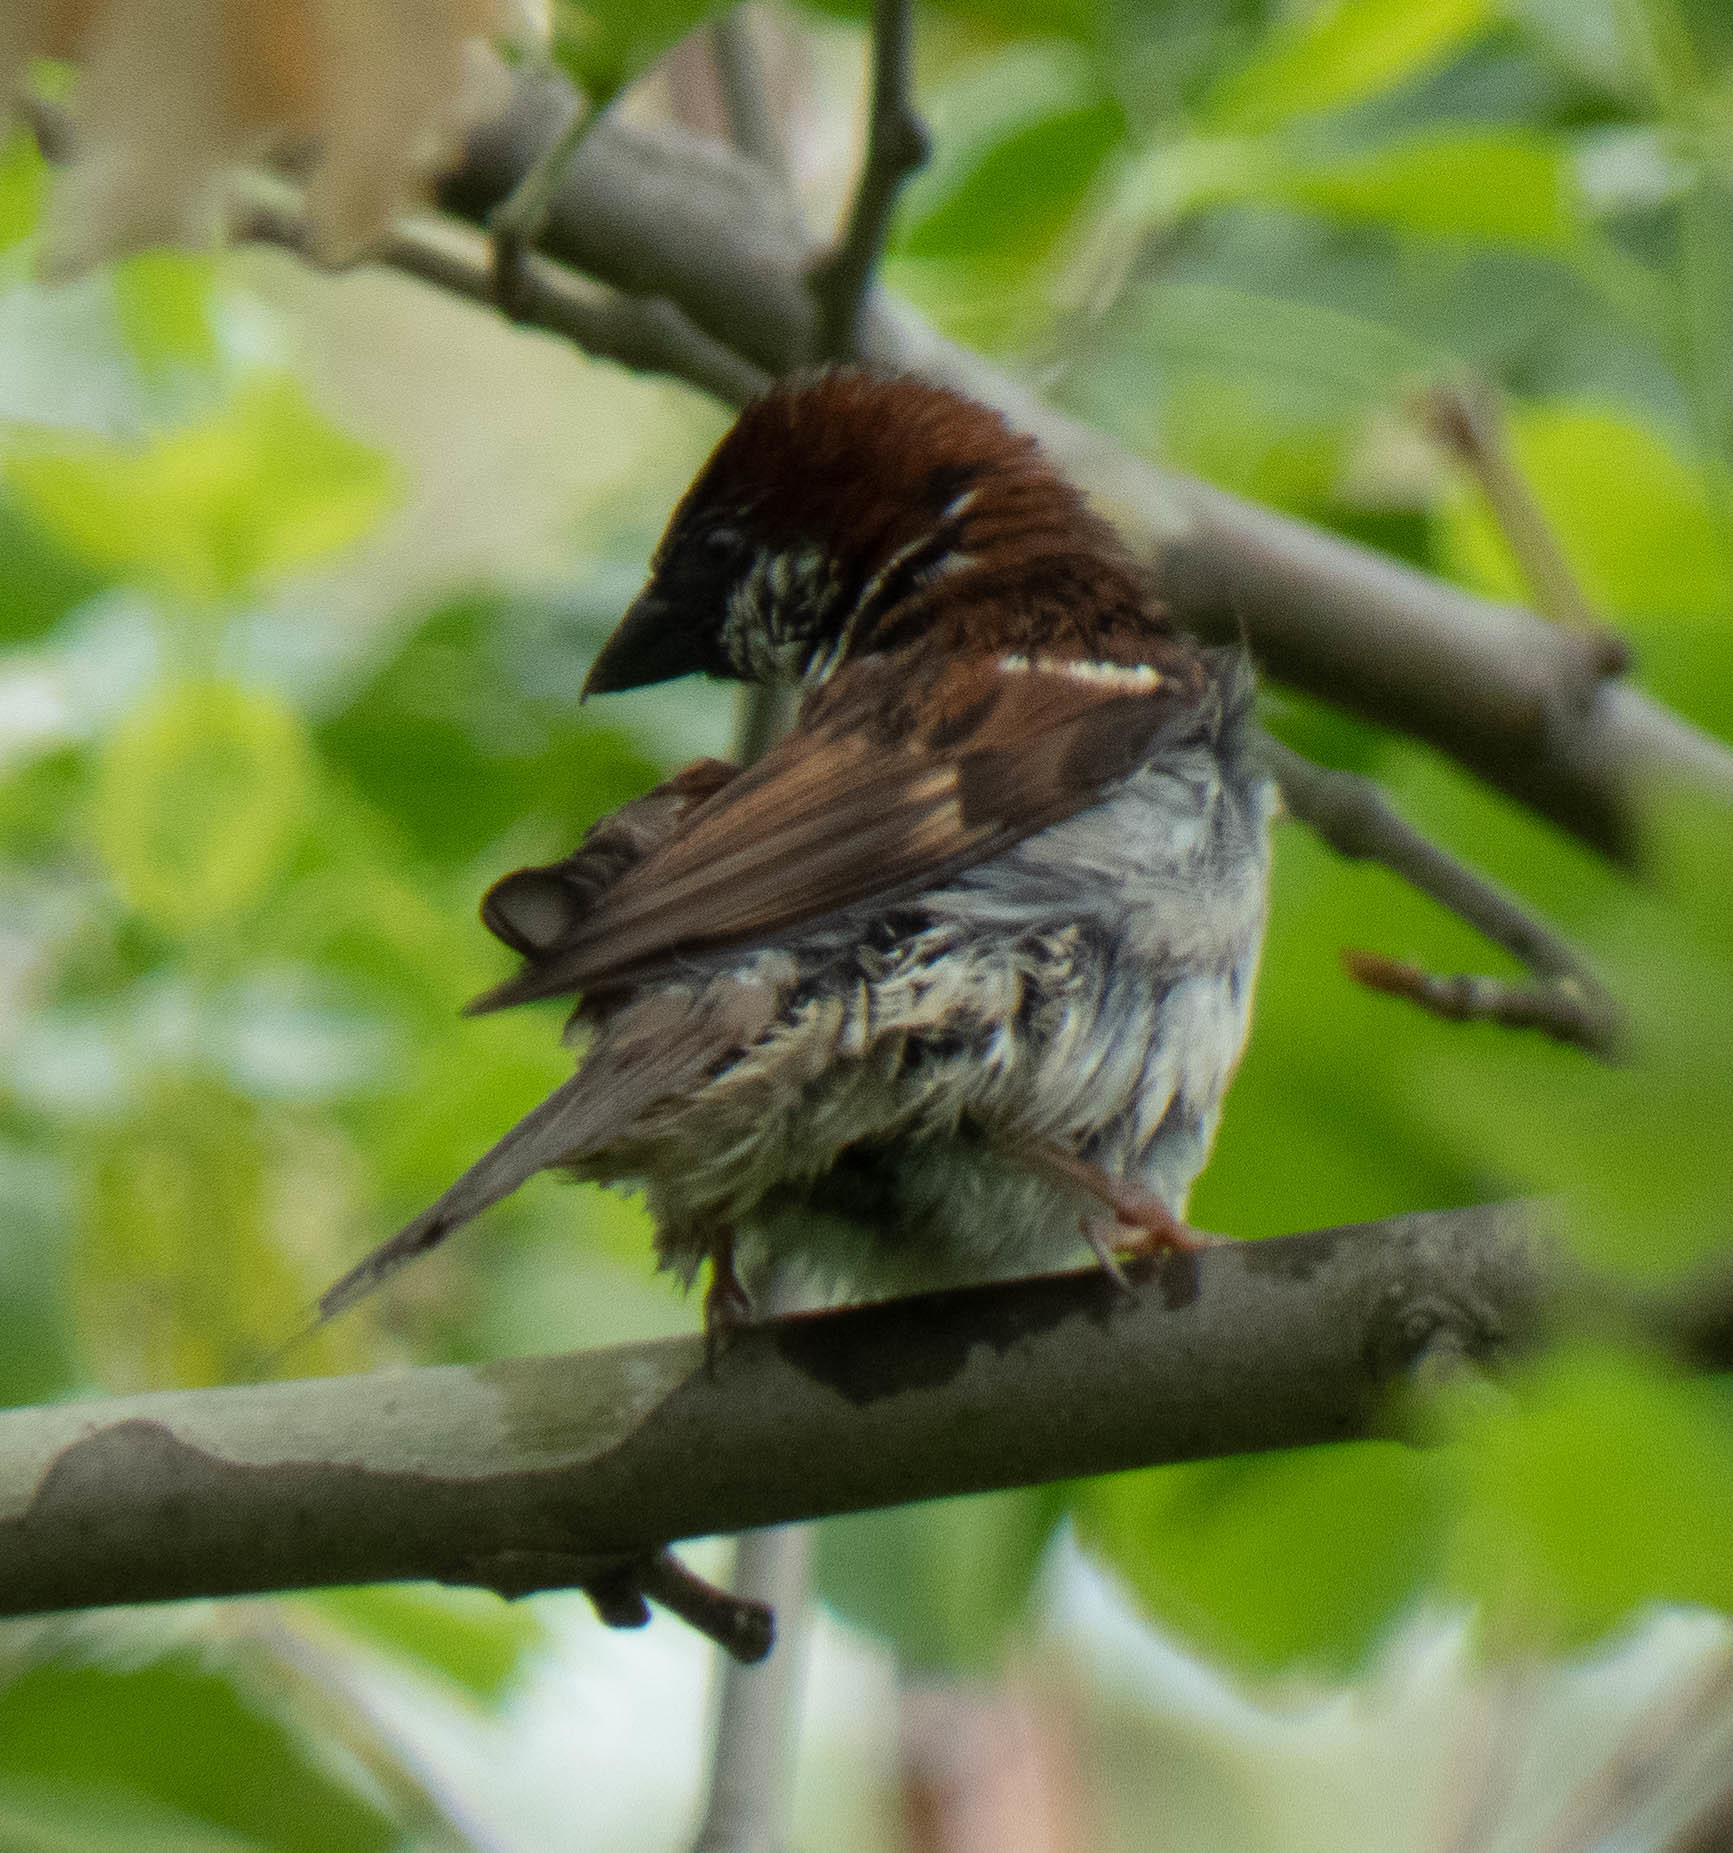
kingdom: Animalia
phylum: Chordata
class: Aves
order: Passeriformes
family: Passeridae
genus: Passer
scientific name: Passer domesticus
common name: House sparrow
